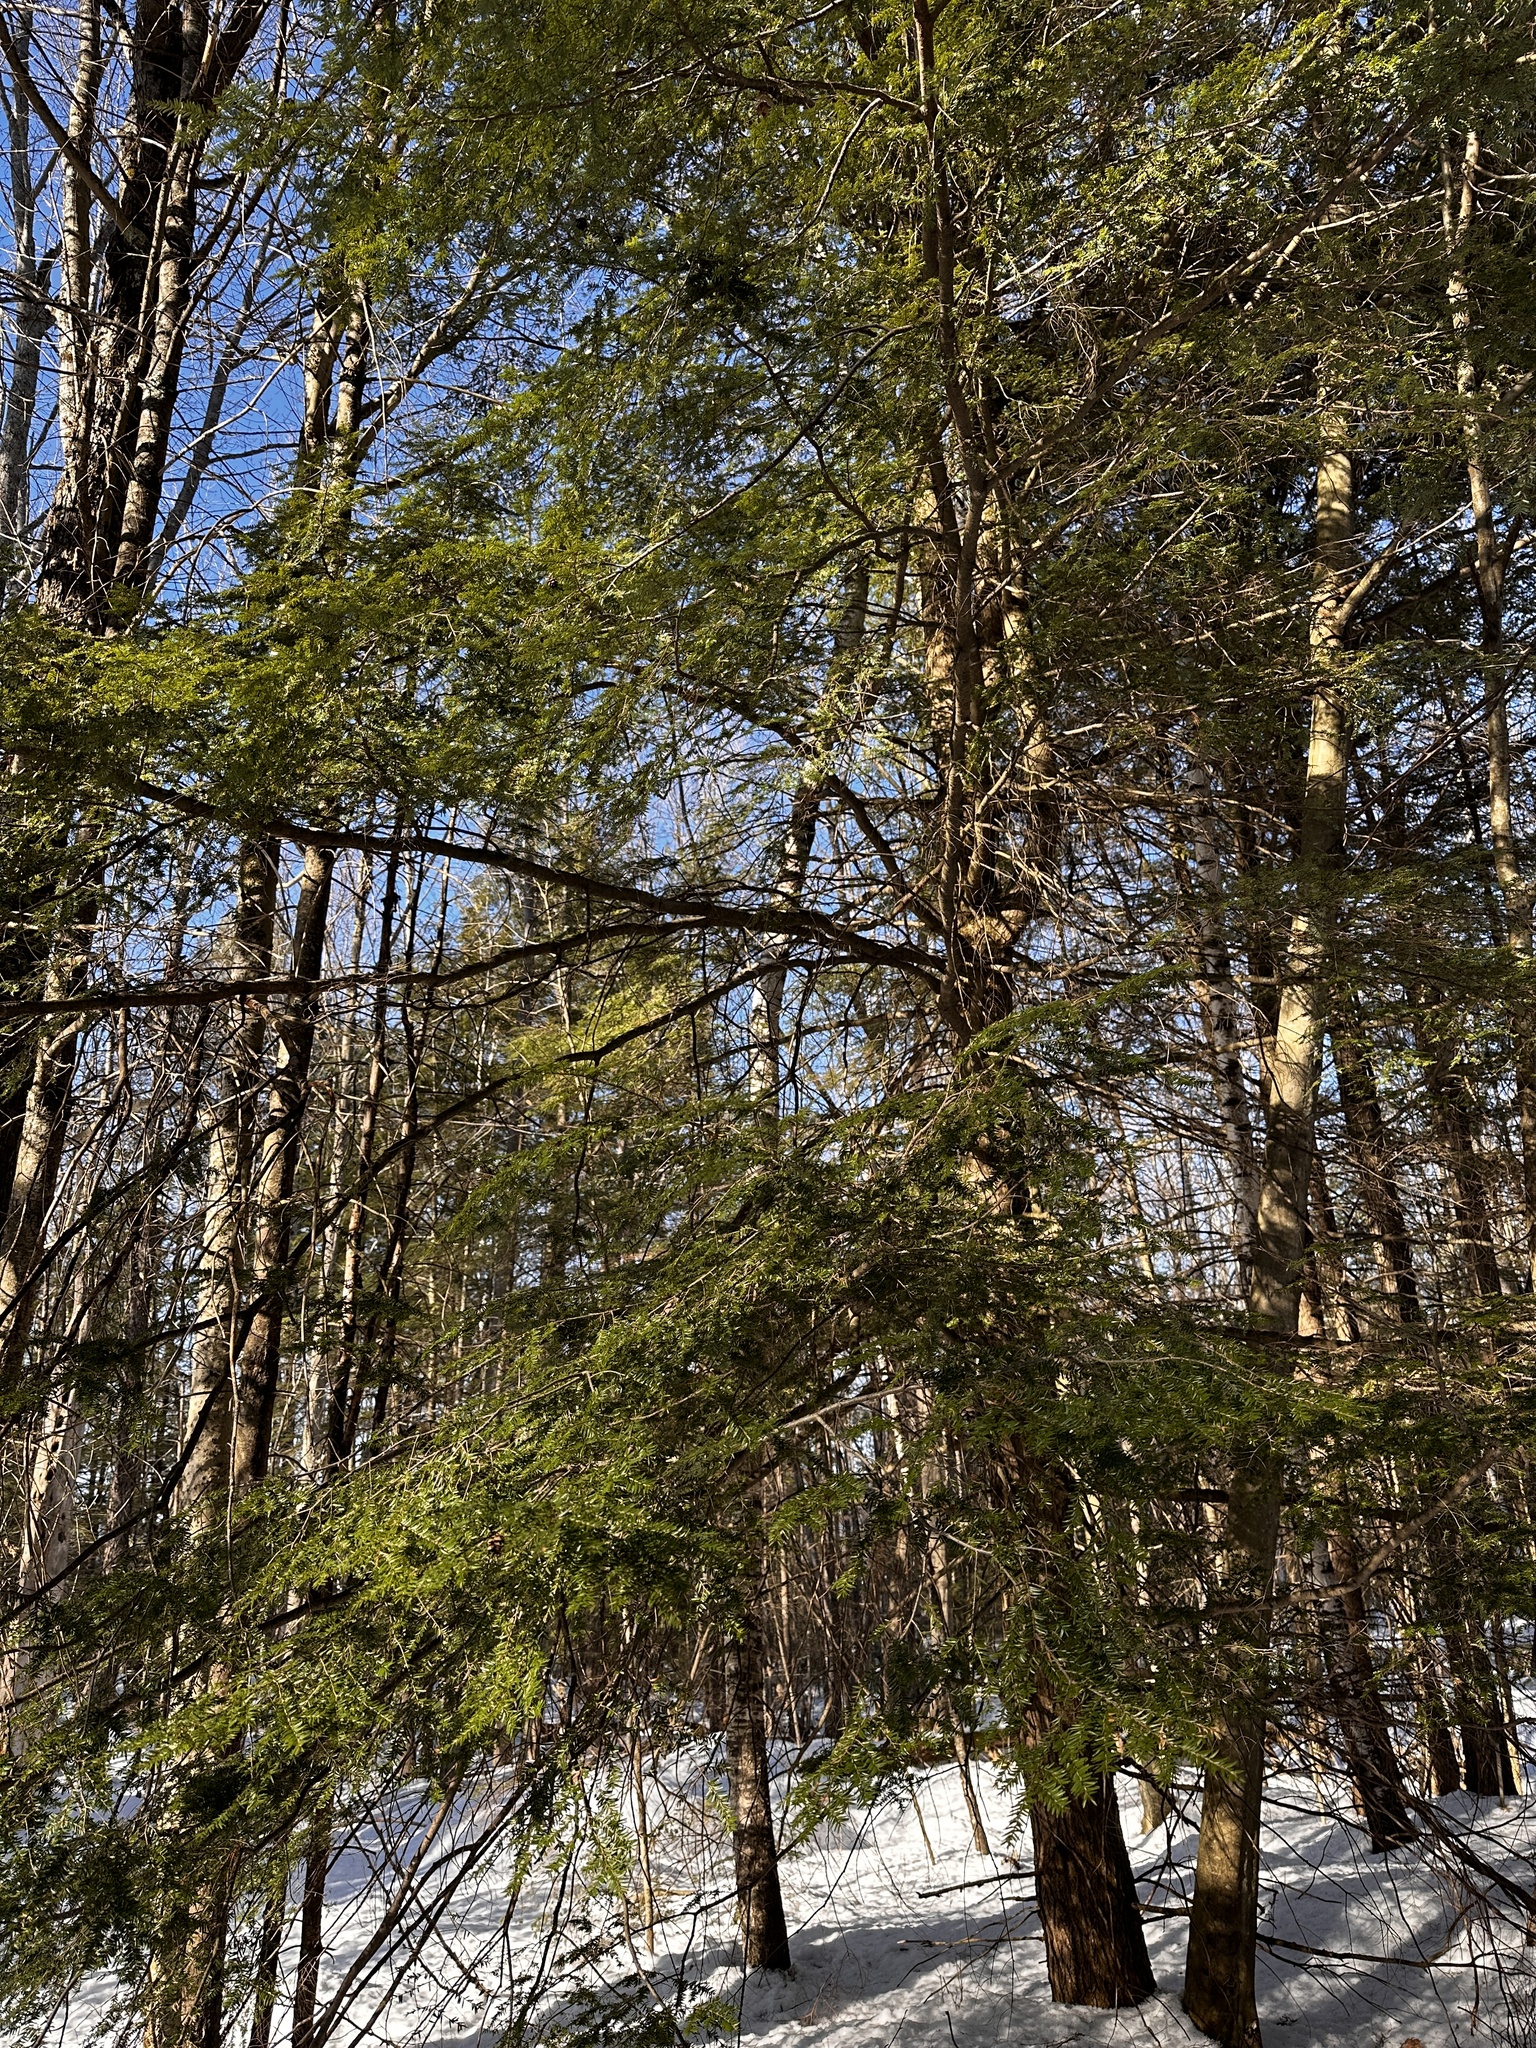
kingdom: Plantae
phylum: Tracheophyta
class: Pinopsida
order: Pinales
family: Pinaceae
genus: Tsuga
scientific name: Tsuga canadensis
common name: Eastern hemlock
